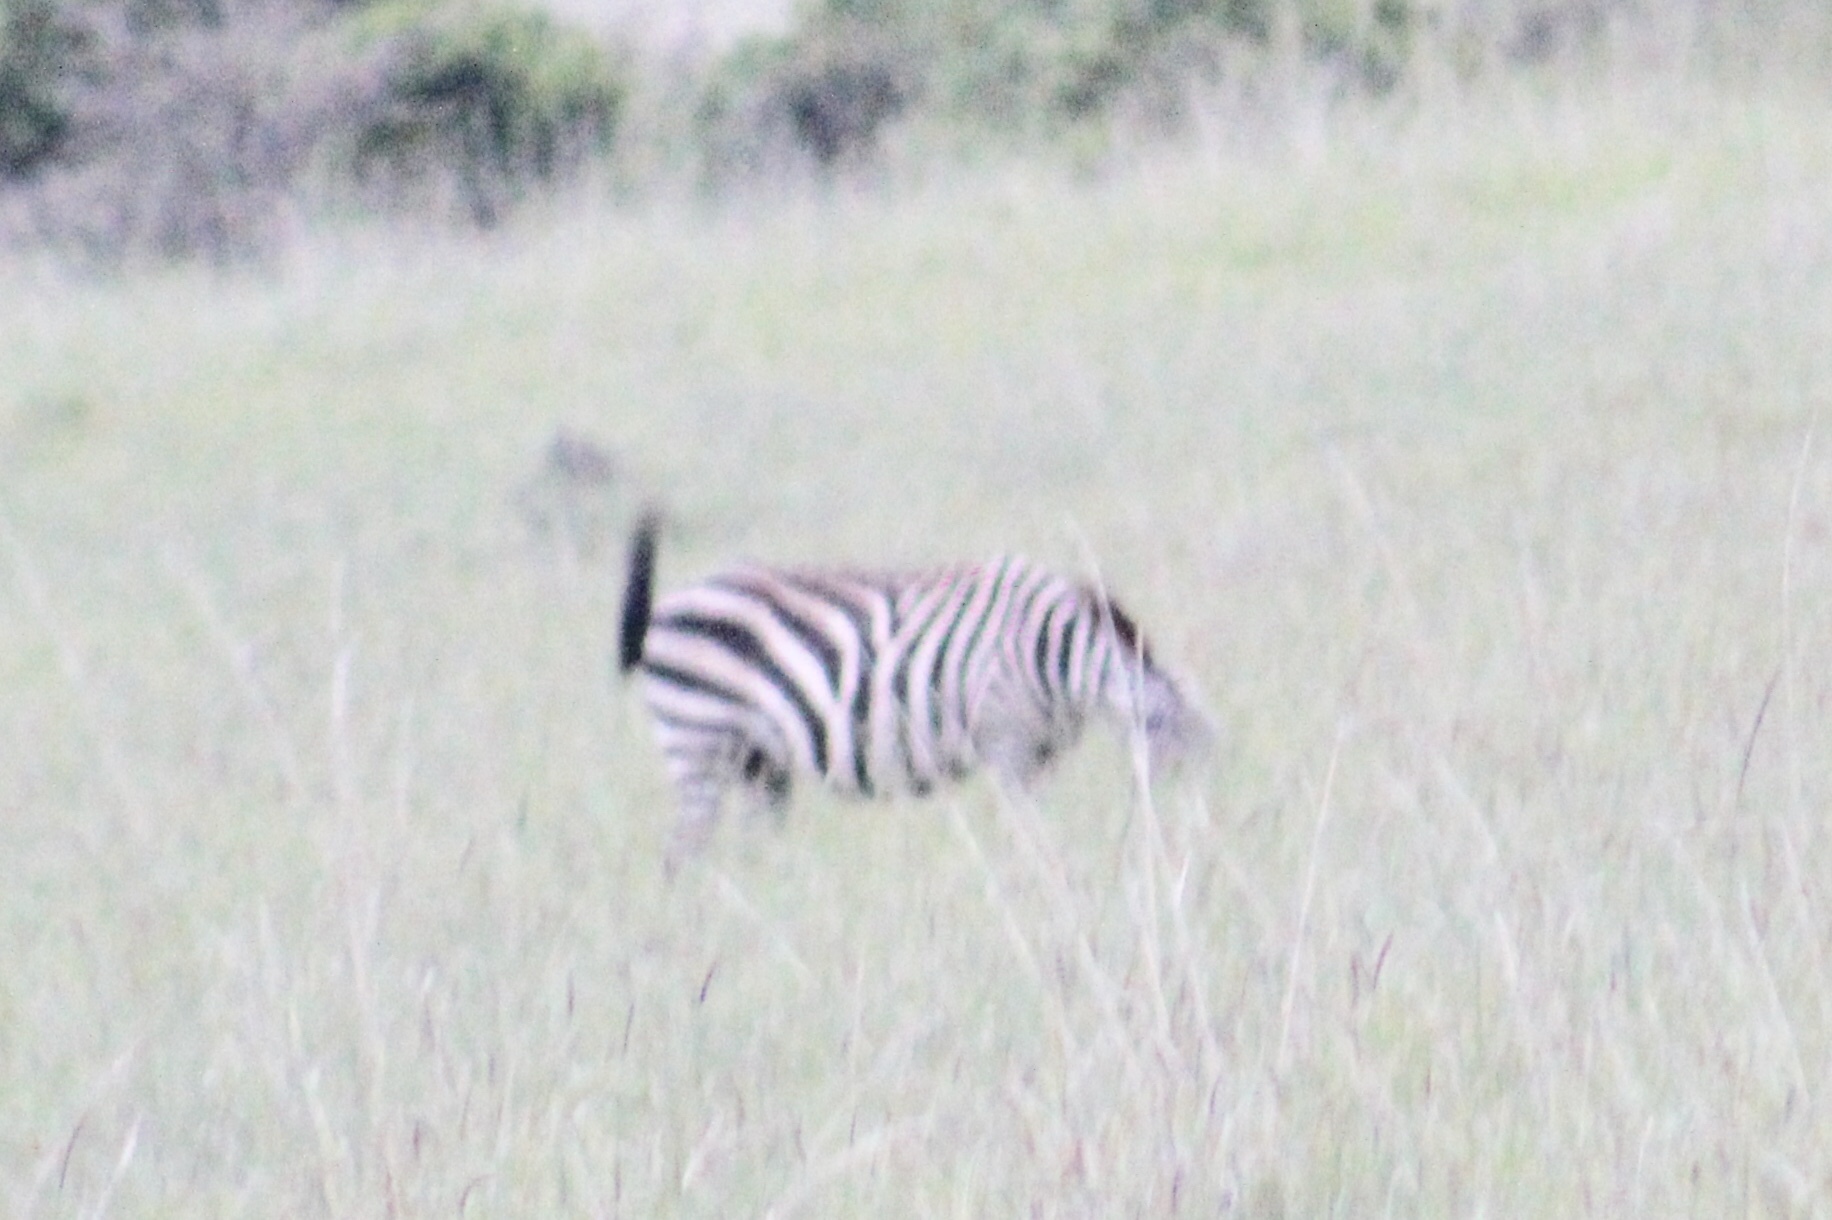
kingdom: Animalia
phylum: Chordata
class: Mammalia
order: Perissodactyla
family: Equidae
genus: Equus
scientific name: Equus quagga
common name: Plains zebra
